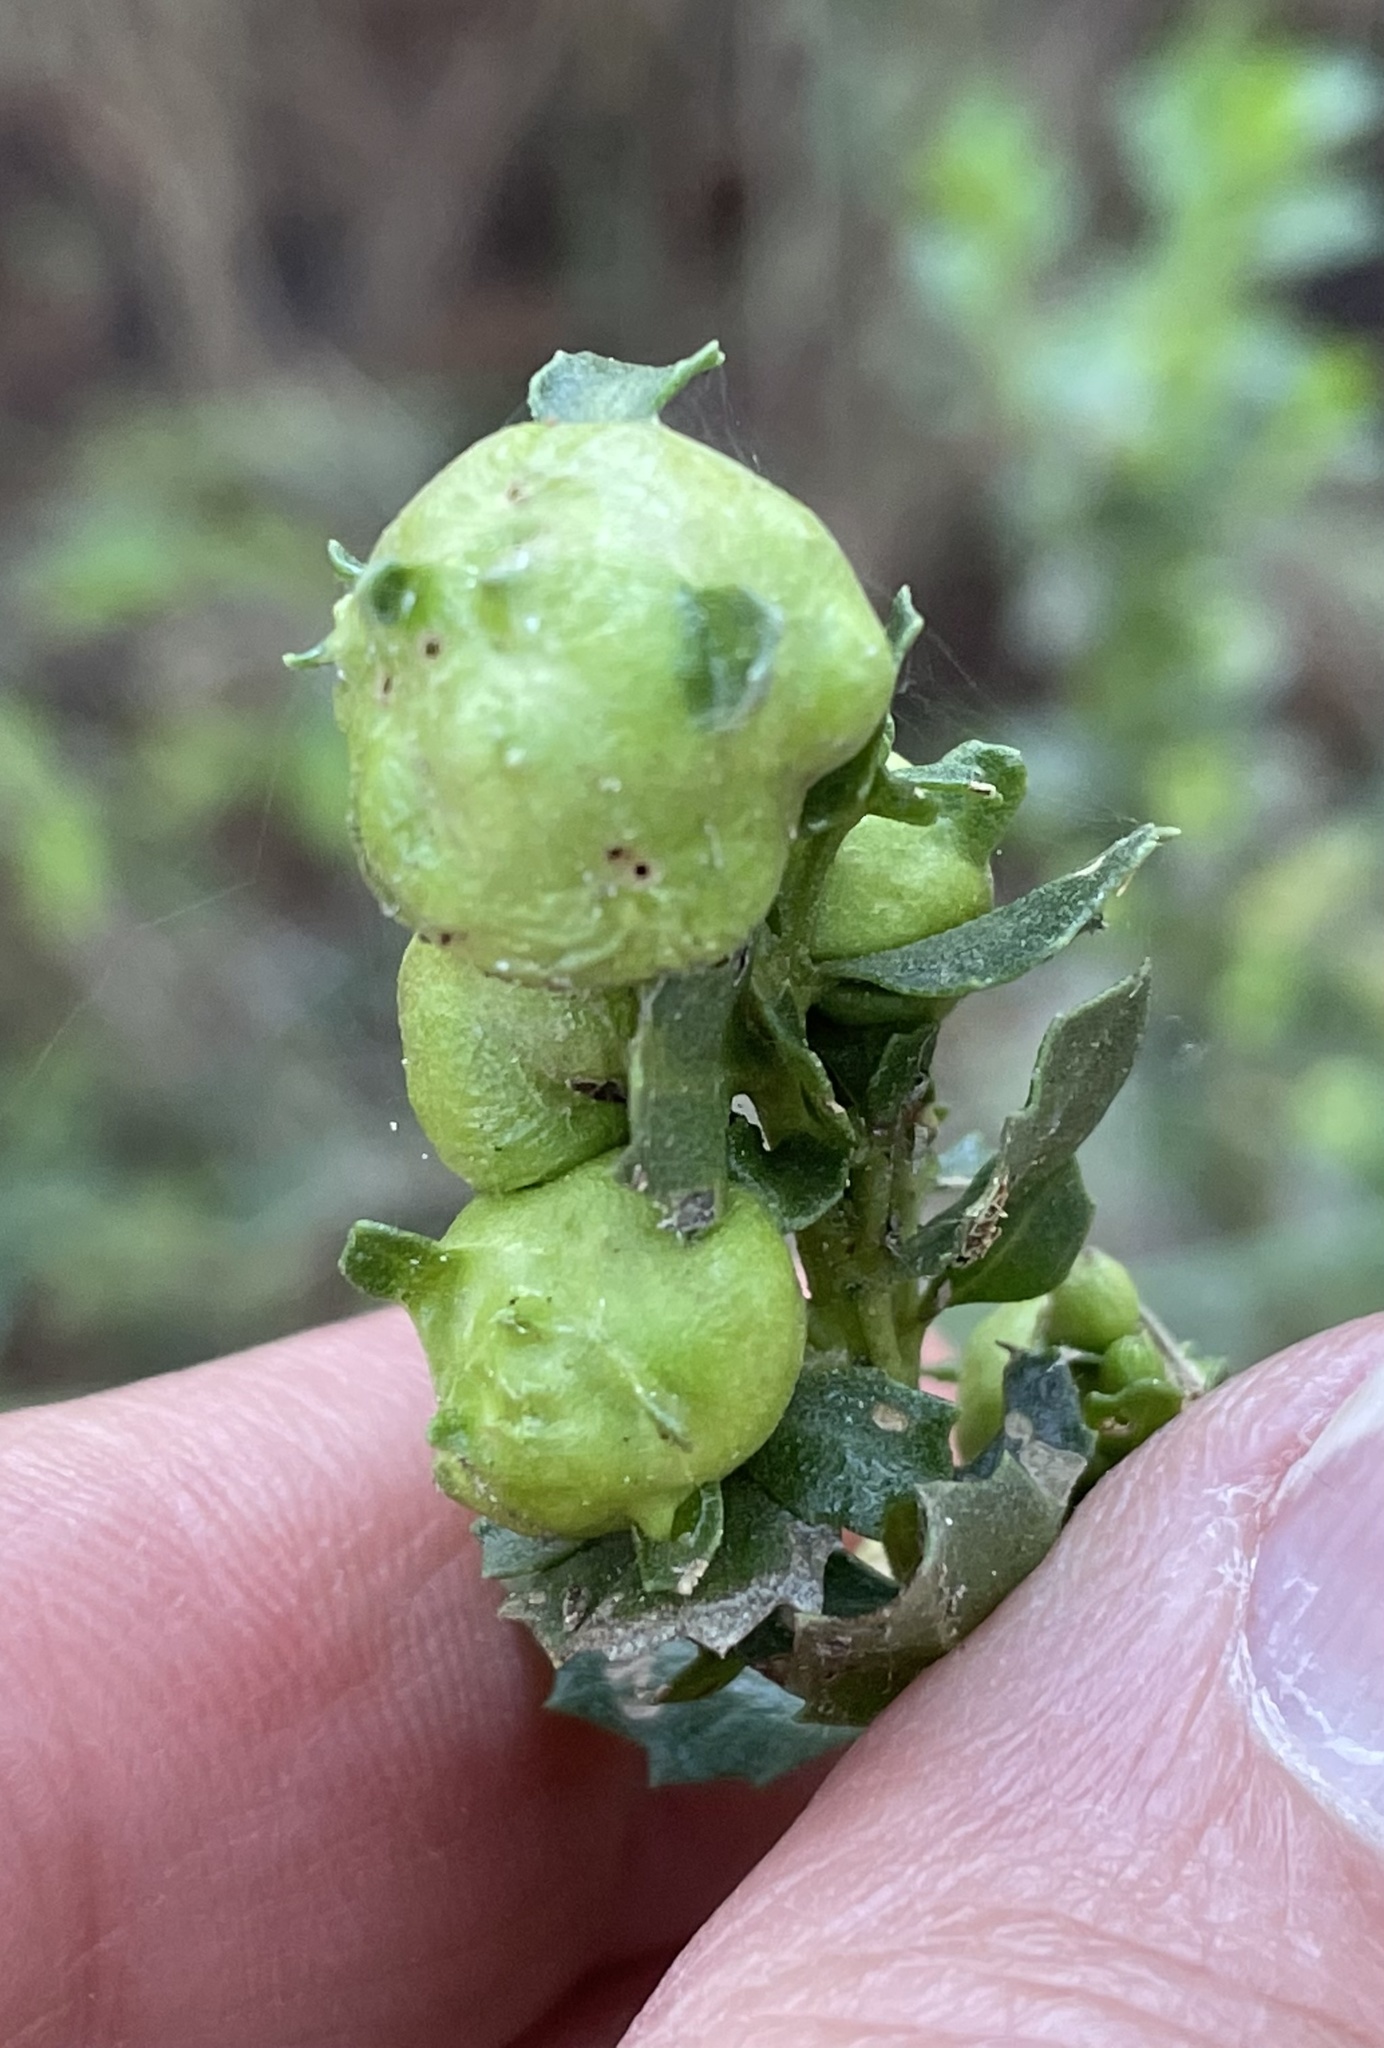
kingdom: Animalia
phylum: Arthropoda
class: Insecta
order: Diptera
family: Cecidomyiidae
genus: Rhopalomyia
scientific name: Rhopalomyia californica
